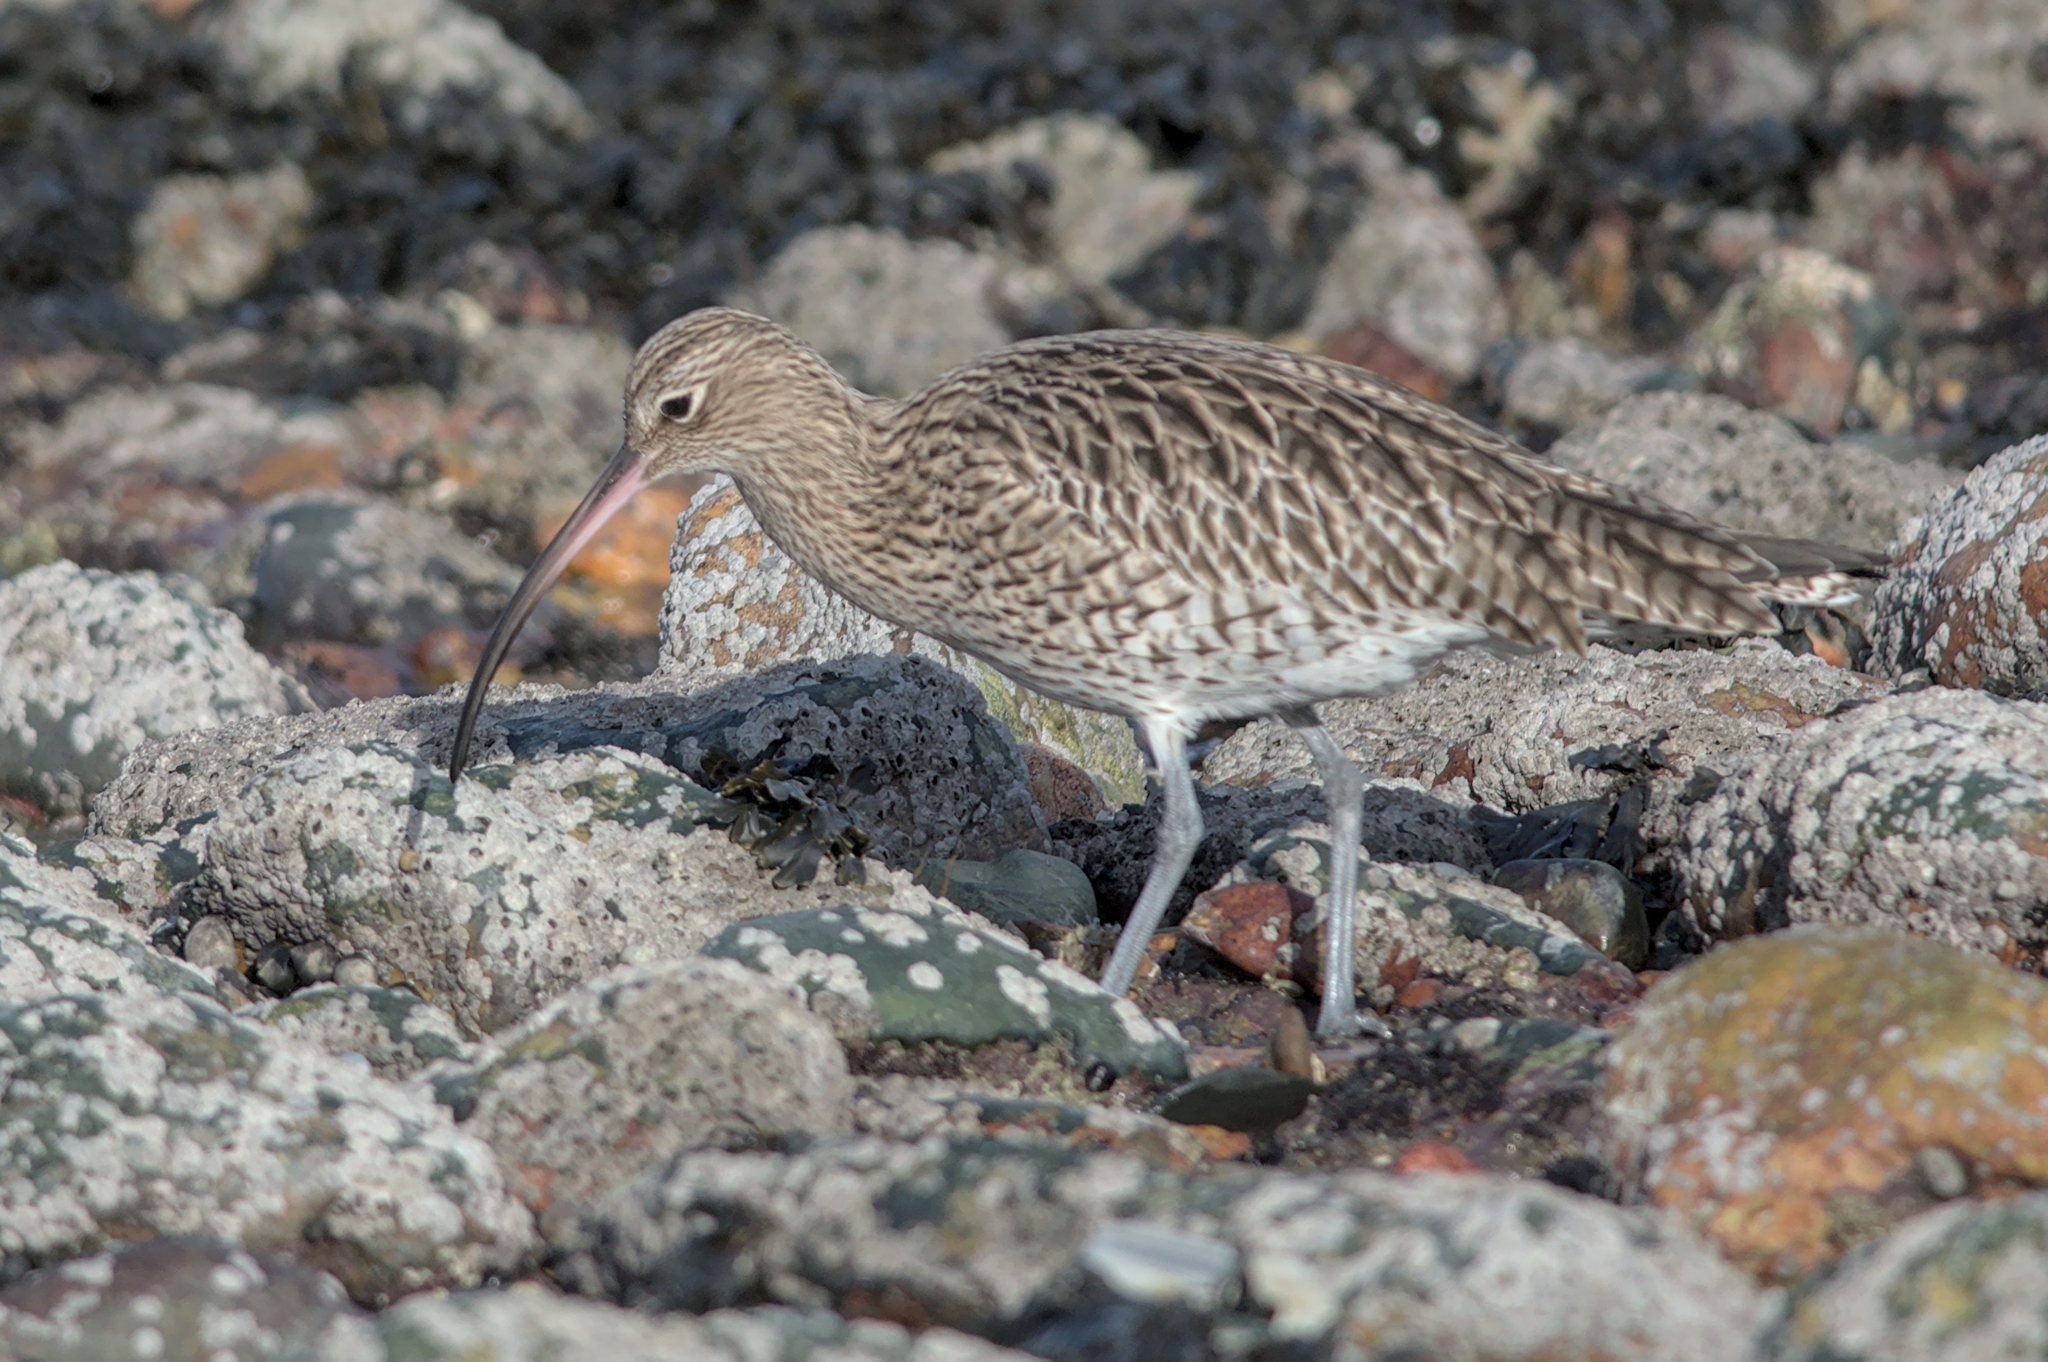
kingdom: Animalia
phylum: Chordata
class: Aves
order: Charadriiformes
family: Scolopacidae
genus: Numenius
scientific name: Numenius arquata
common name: Eurasian curlew
